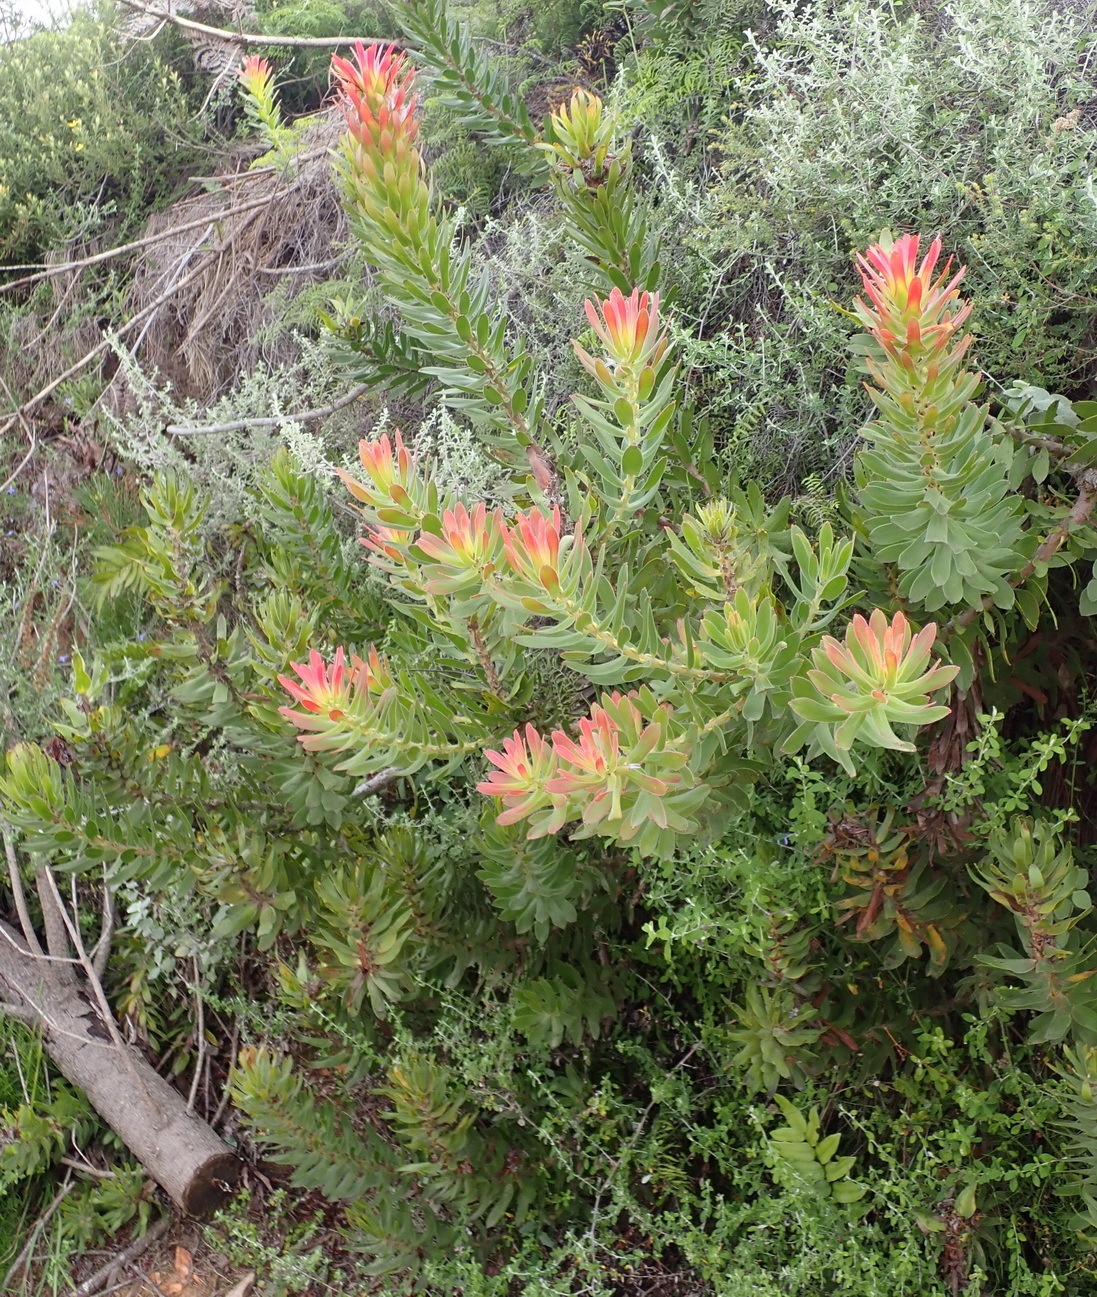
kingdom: Plantae
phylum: Tracheophyta
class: Magnoliopsida
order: Proteales
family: Proteaceae
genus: Mimetes
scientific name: Mimetes cucullatus
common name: Common pagoda
